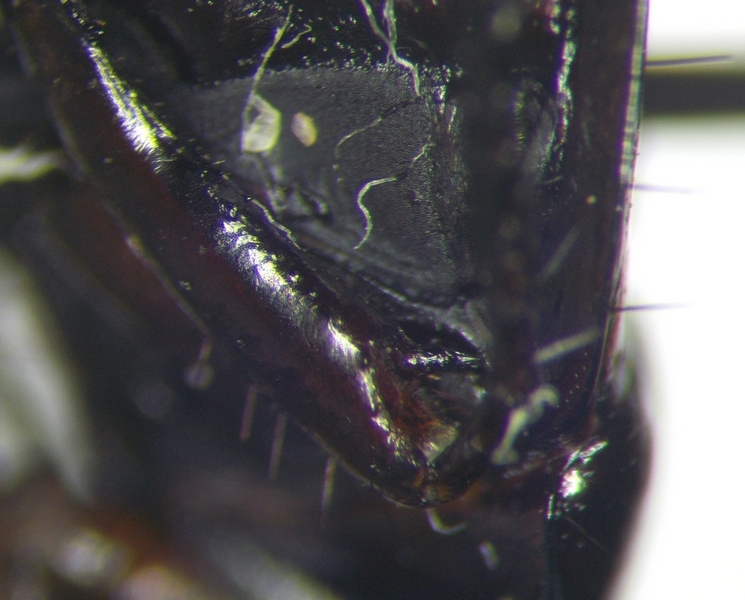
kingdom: Animalia
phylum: Arthropoda
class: Insecta
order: Hemiptera
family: Cydnidae
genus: Macroscytus
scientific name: Macroscytus brunneus
